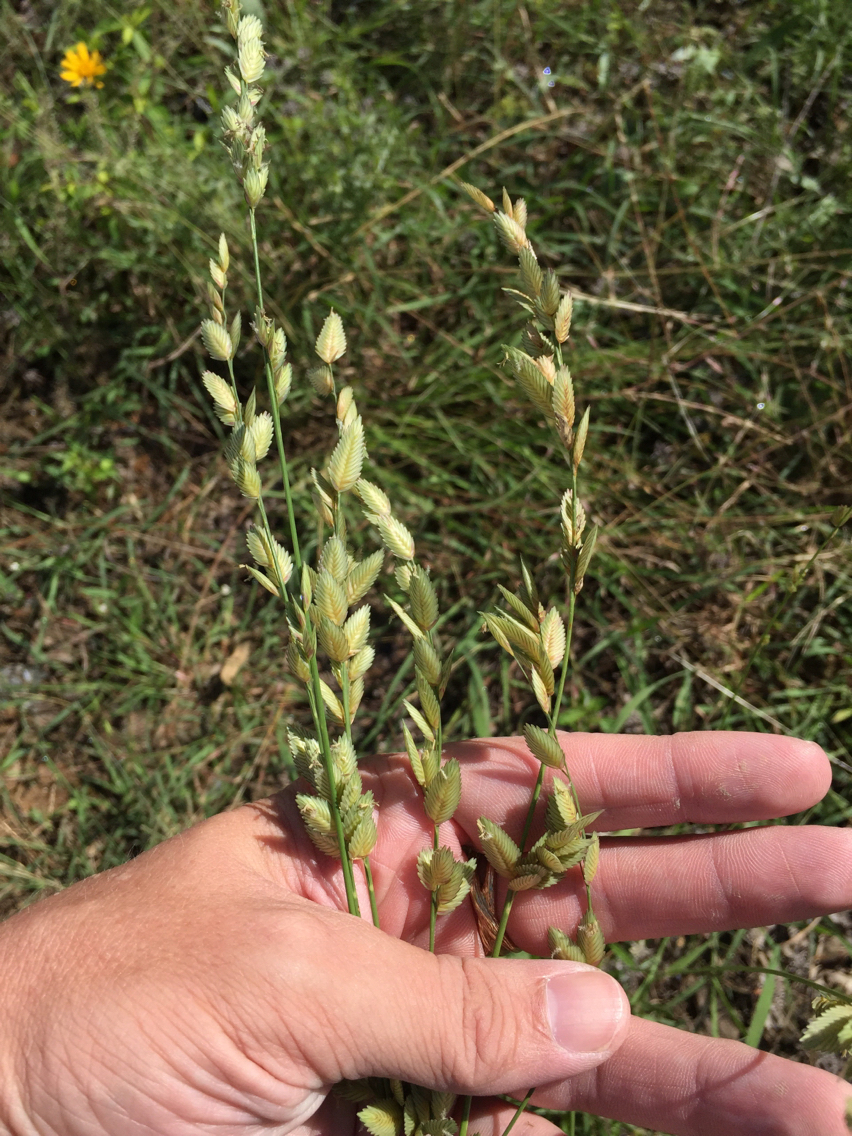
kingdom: Plantae
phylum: Tracheophyta
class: Liliopsida
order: Poales
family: Poaceae
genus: Eragrostis
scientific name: Eragrostis superba
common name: Wilman lovegrass
